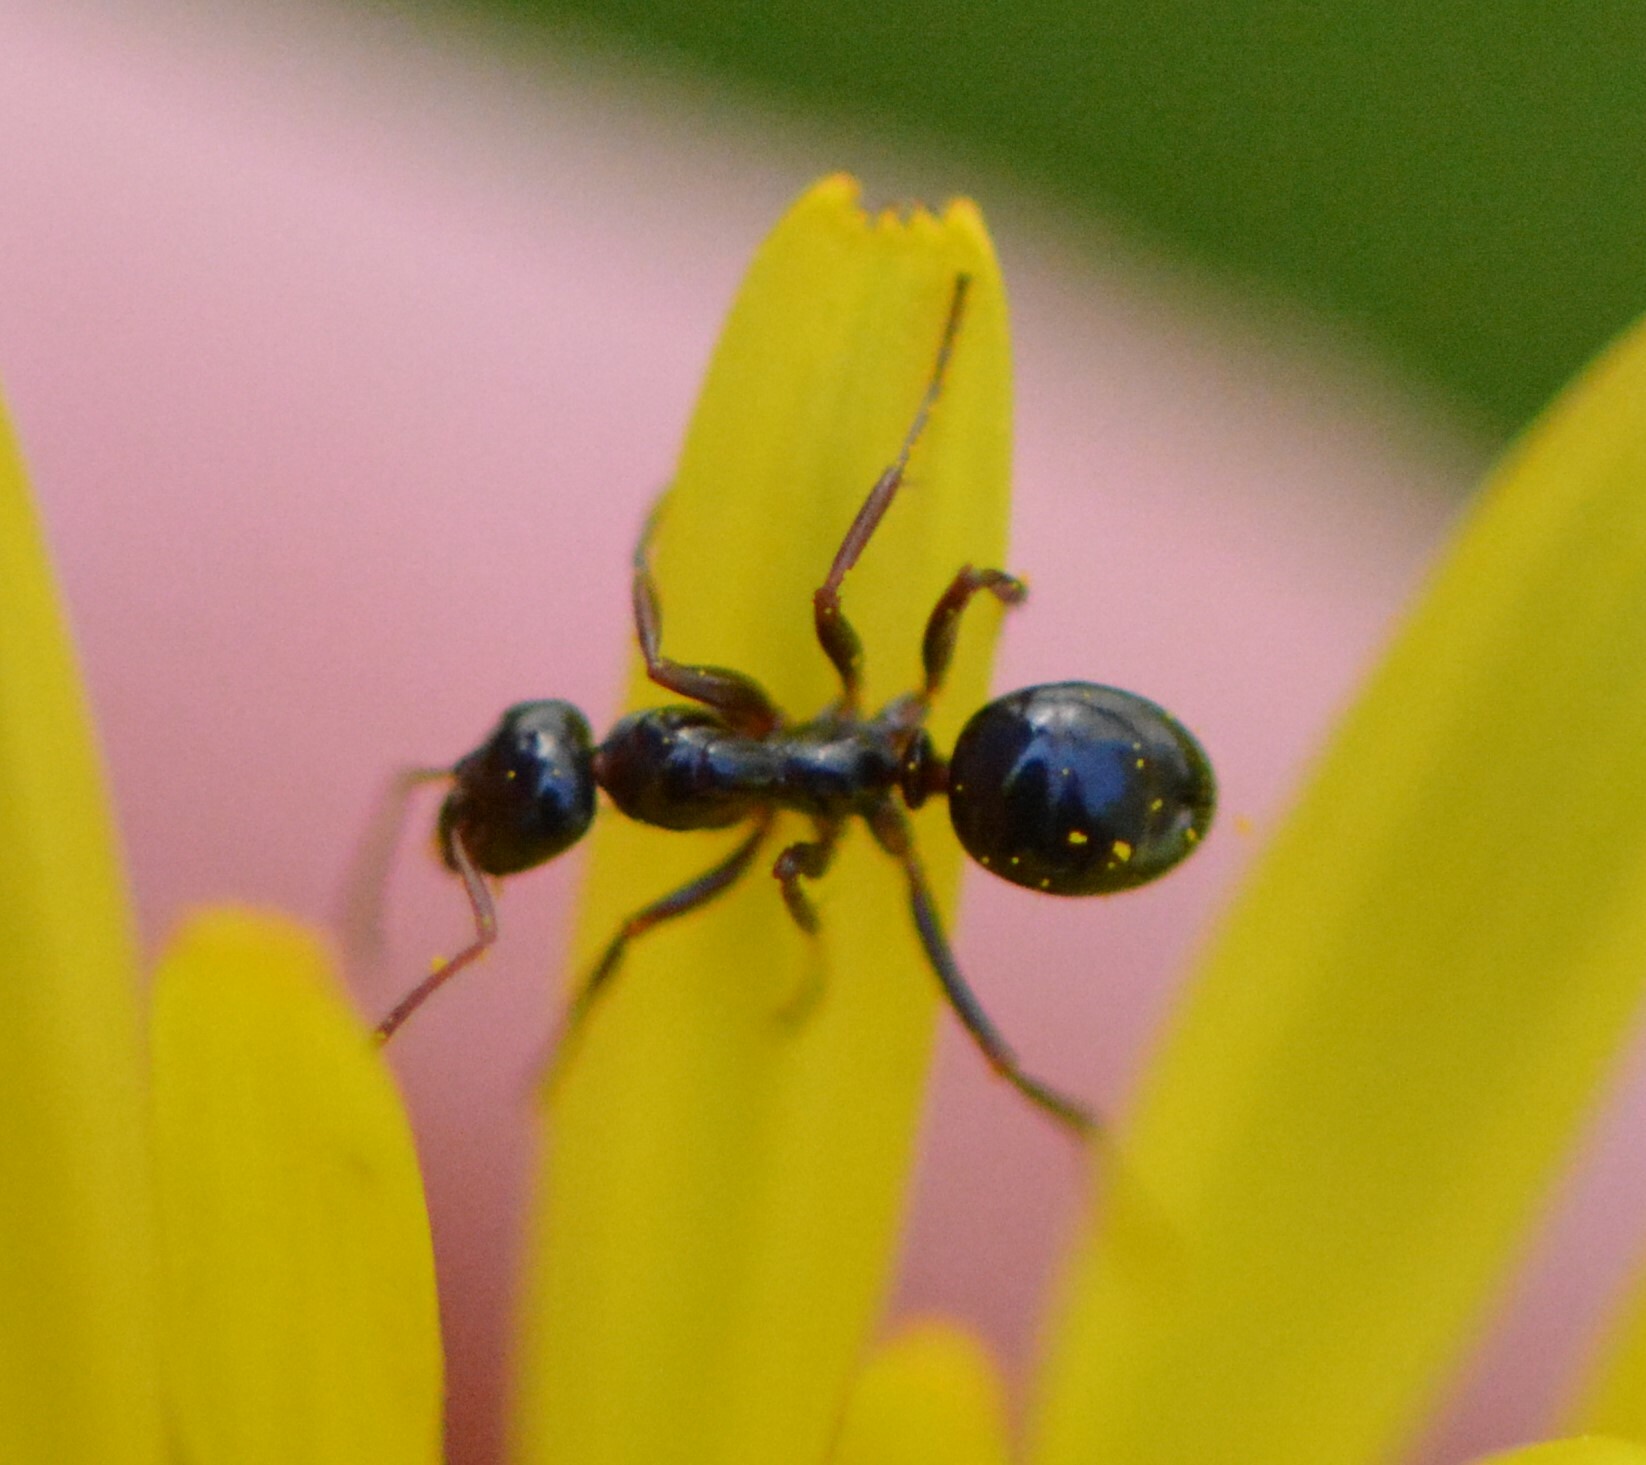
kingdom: Animalia
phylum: Arthropoda
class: Insecta
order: Hymenoptera
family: Formicidae
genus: Formica
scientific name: Formica
